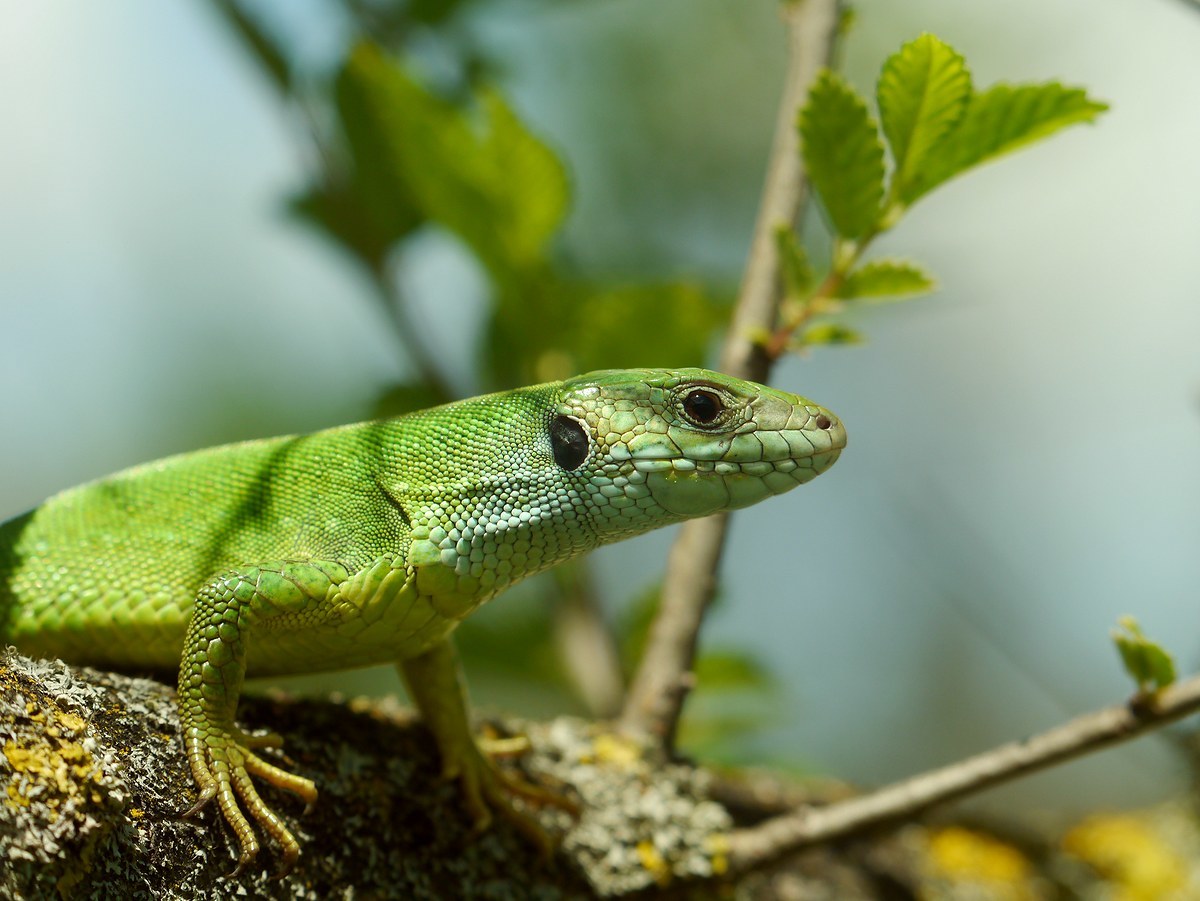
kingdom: Animalia
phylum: Chordata
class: Squamata
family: Lacertidae
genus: Lacerta
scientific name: Lacerta viridis
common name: European green lizard
